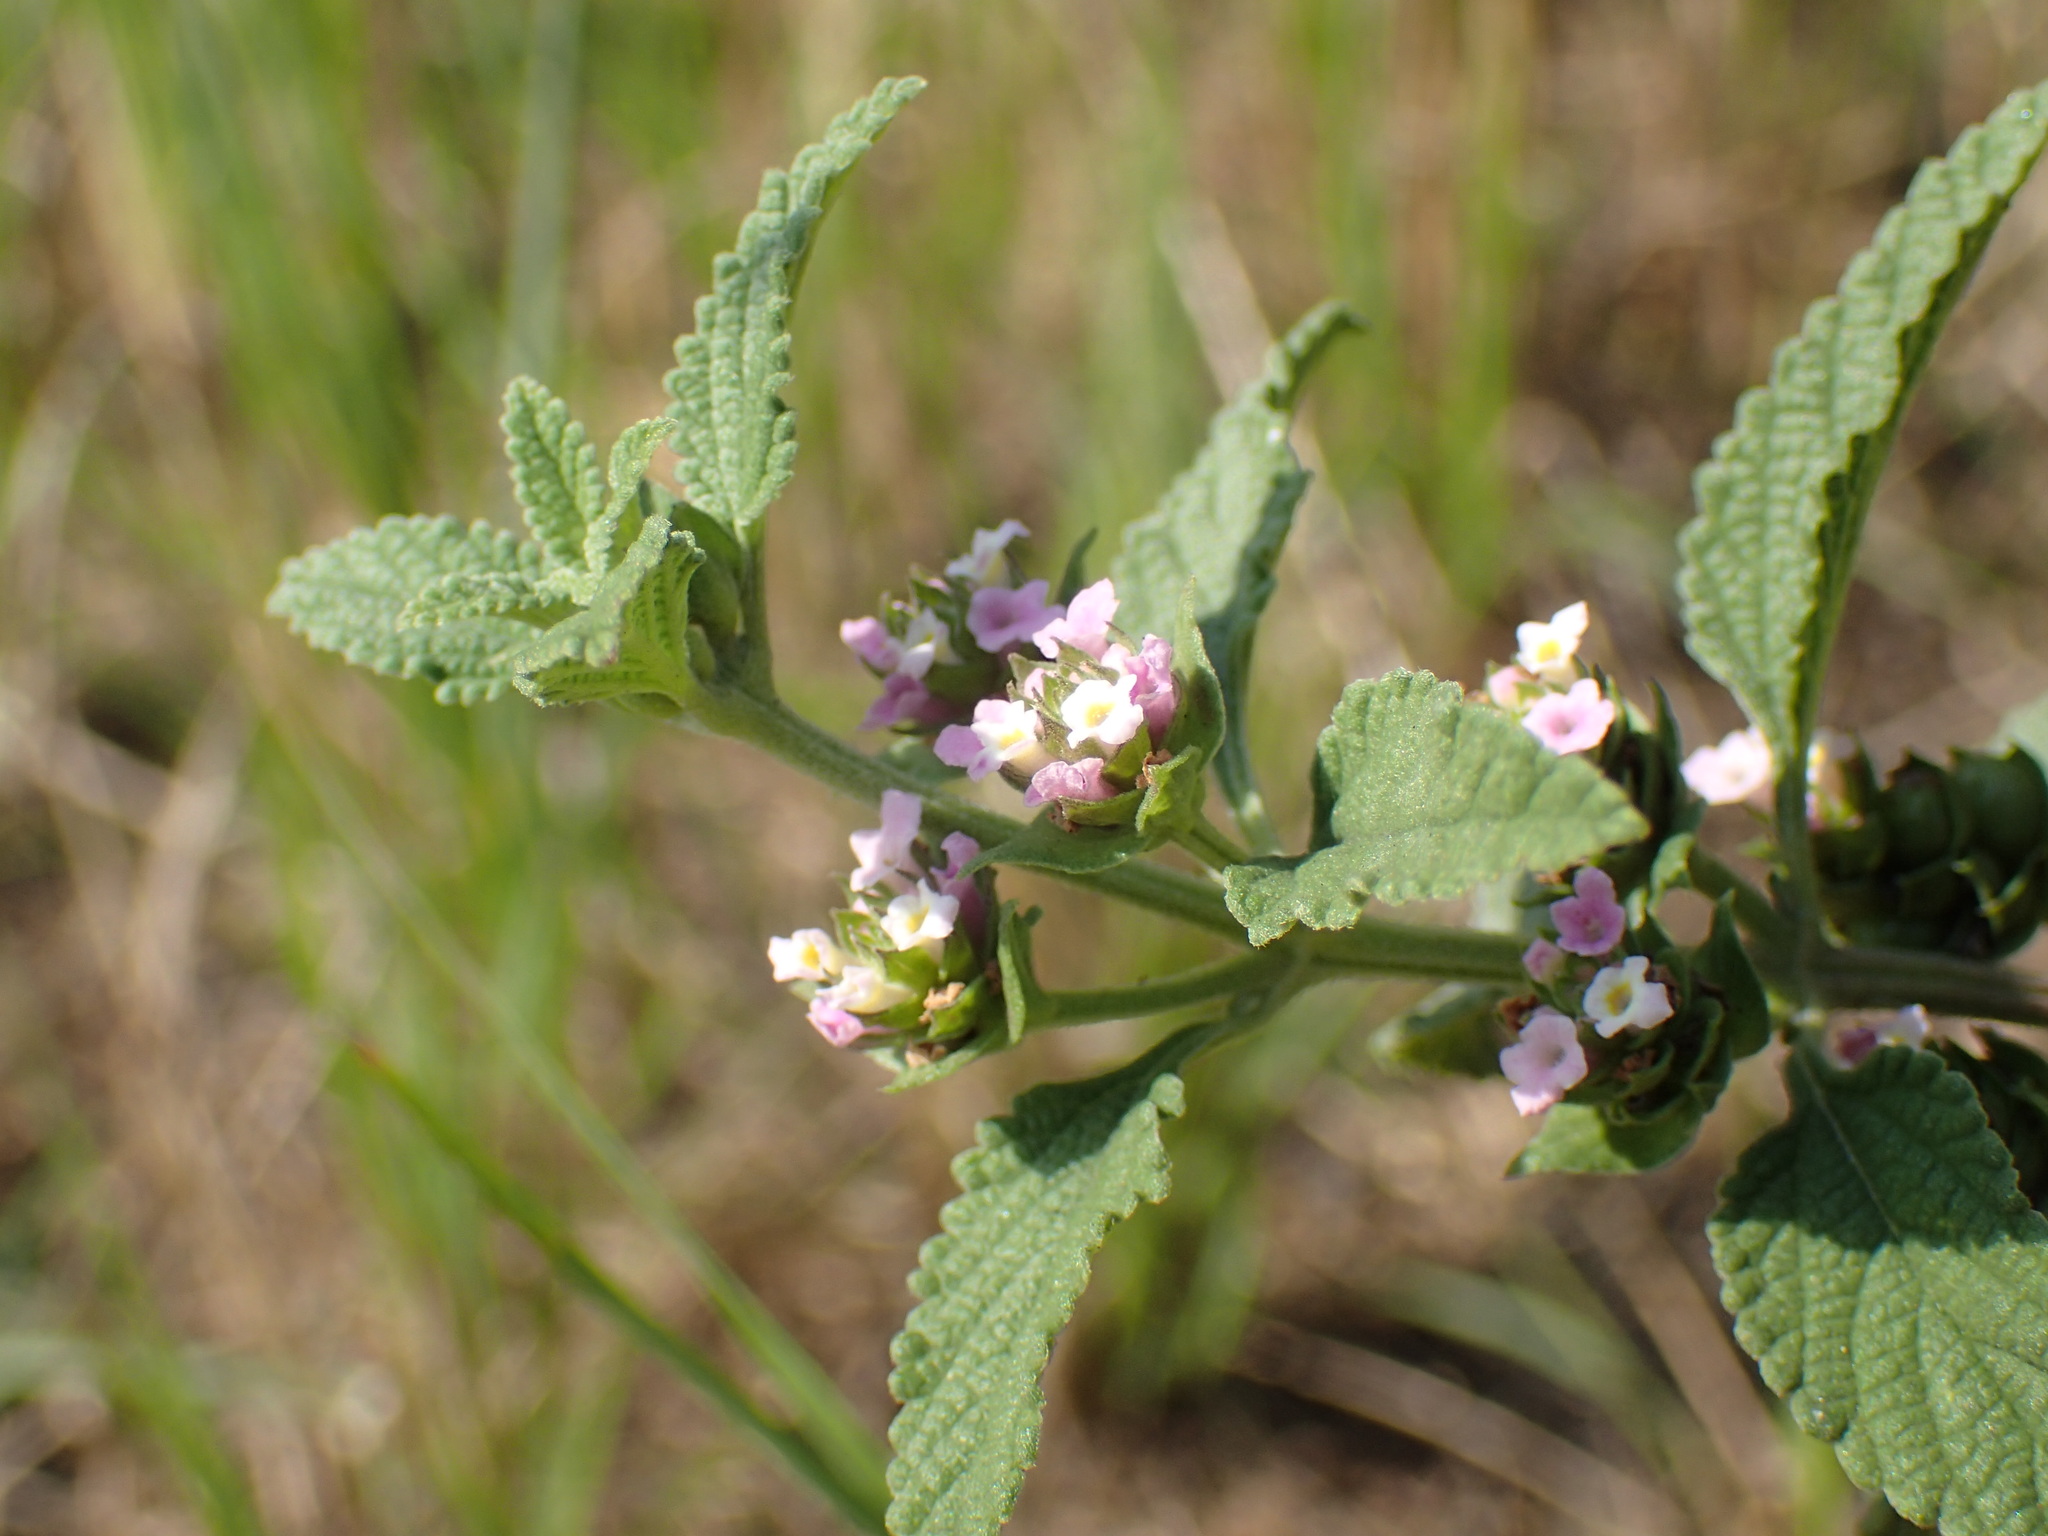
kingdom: Plantae
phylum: Tracheophyta
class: Magnoliopsida
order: Lamiales
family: Verbenaceae
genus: Lantana
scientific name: Lantana rugosa
